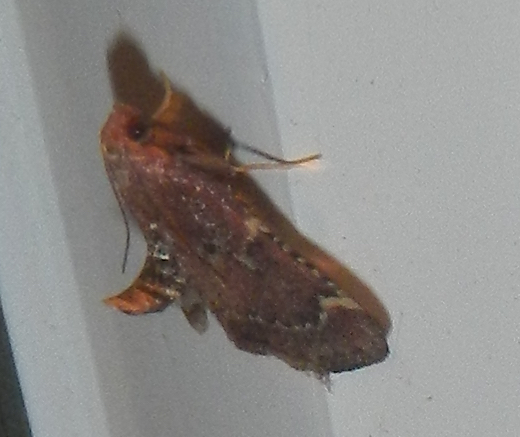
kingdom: Animalia
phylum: Arthropoda
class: Insecta
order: Lepidoptera
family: Pyralidae
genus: Hypsopygia
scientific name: Hypsopygia intermedialis
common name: Red-shawled moth
